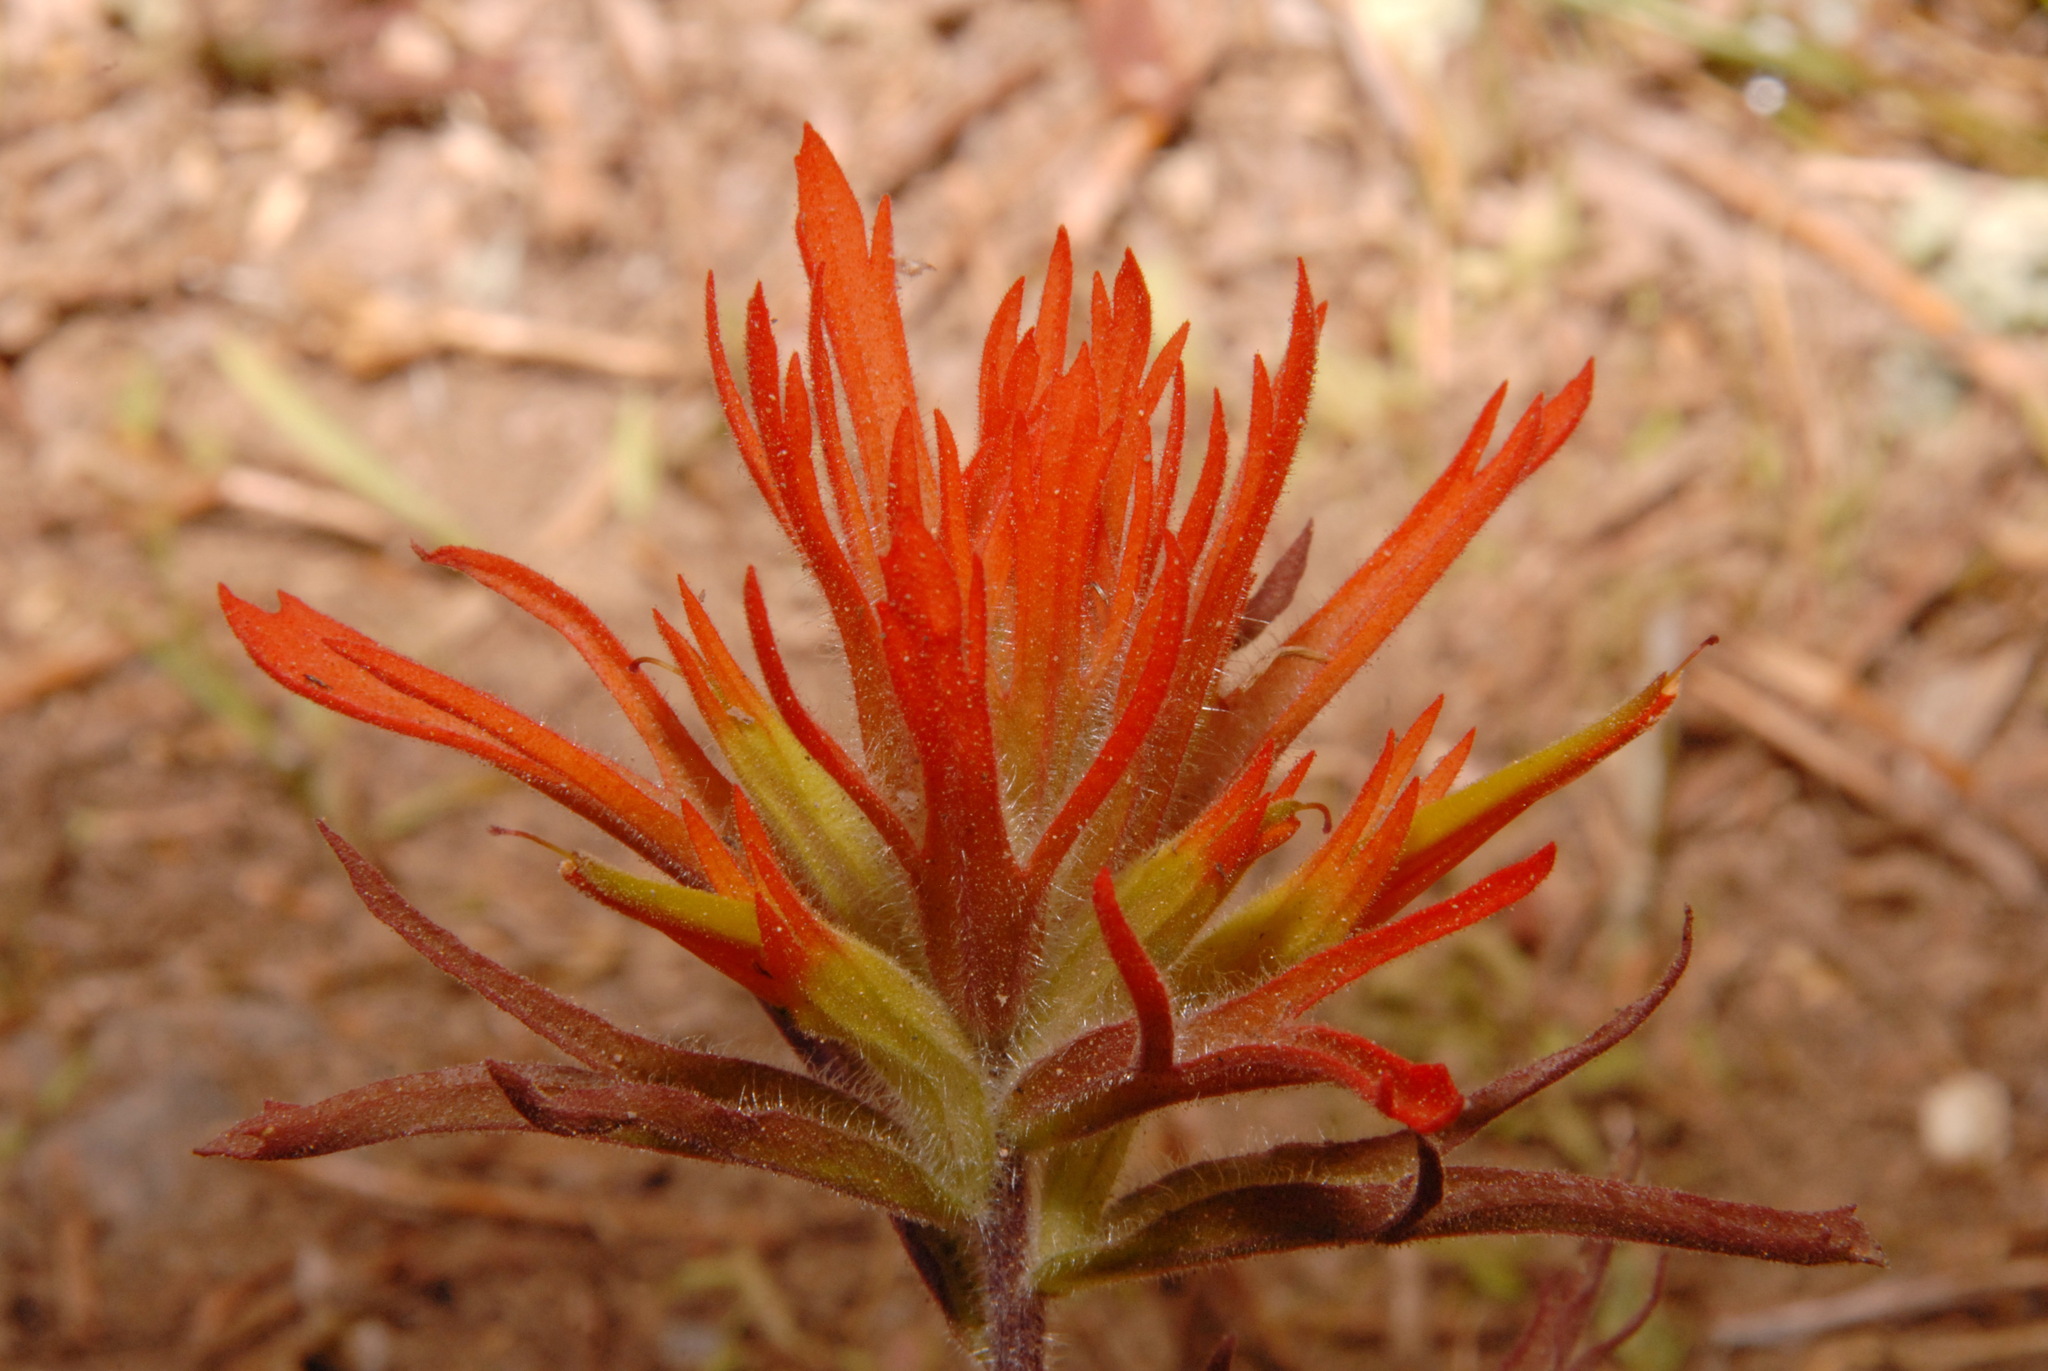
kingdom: Plantae
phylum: Tracheophyta
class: Magnoliopsida
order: Lamiales
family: Orobanchaceae
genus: Castilleja
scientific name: Castilleja applegatei
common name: Wavy-leaf paintbrush
